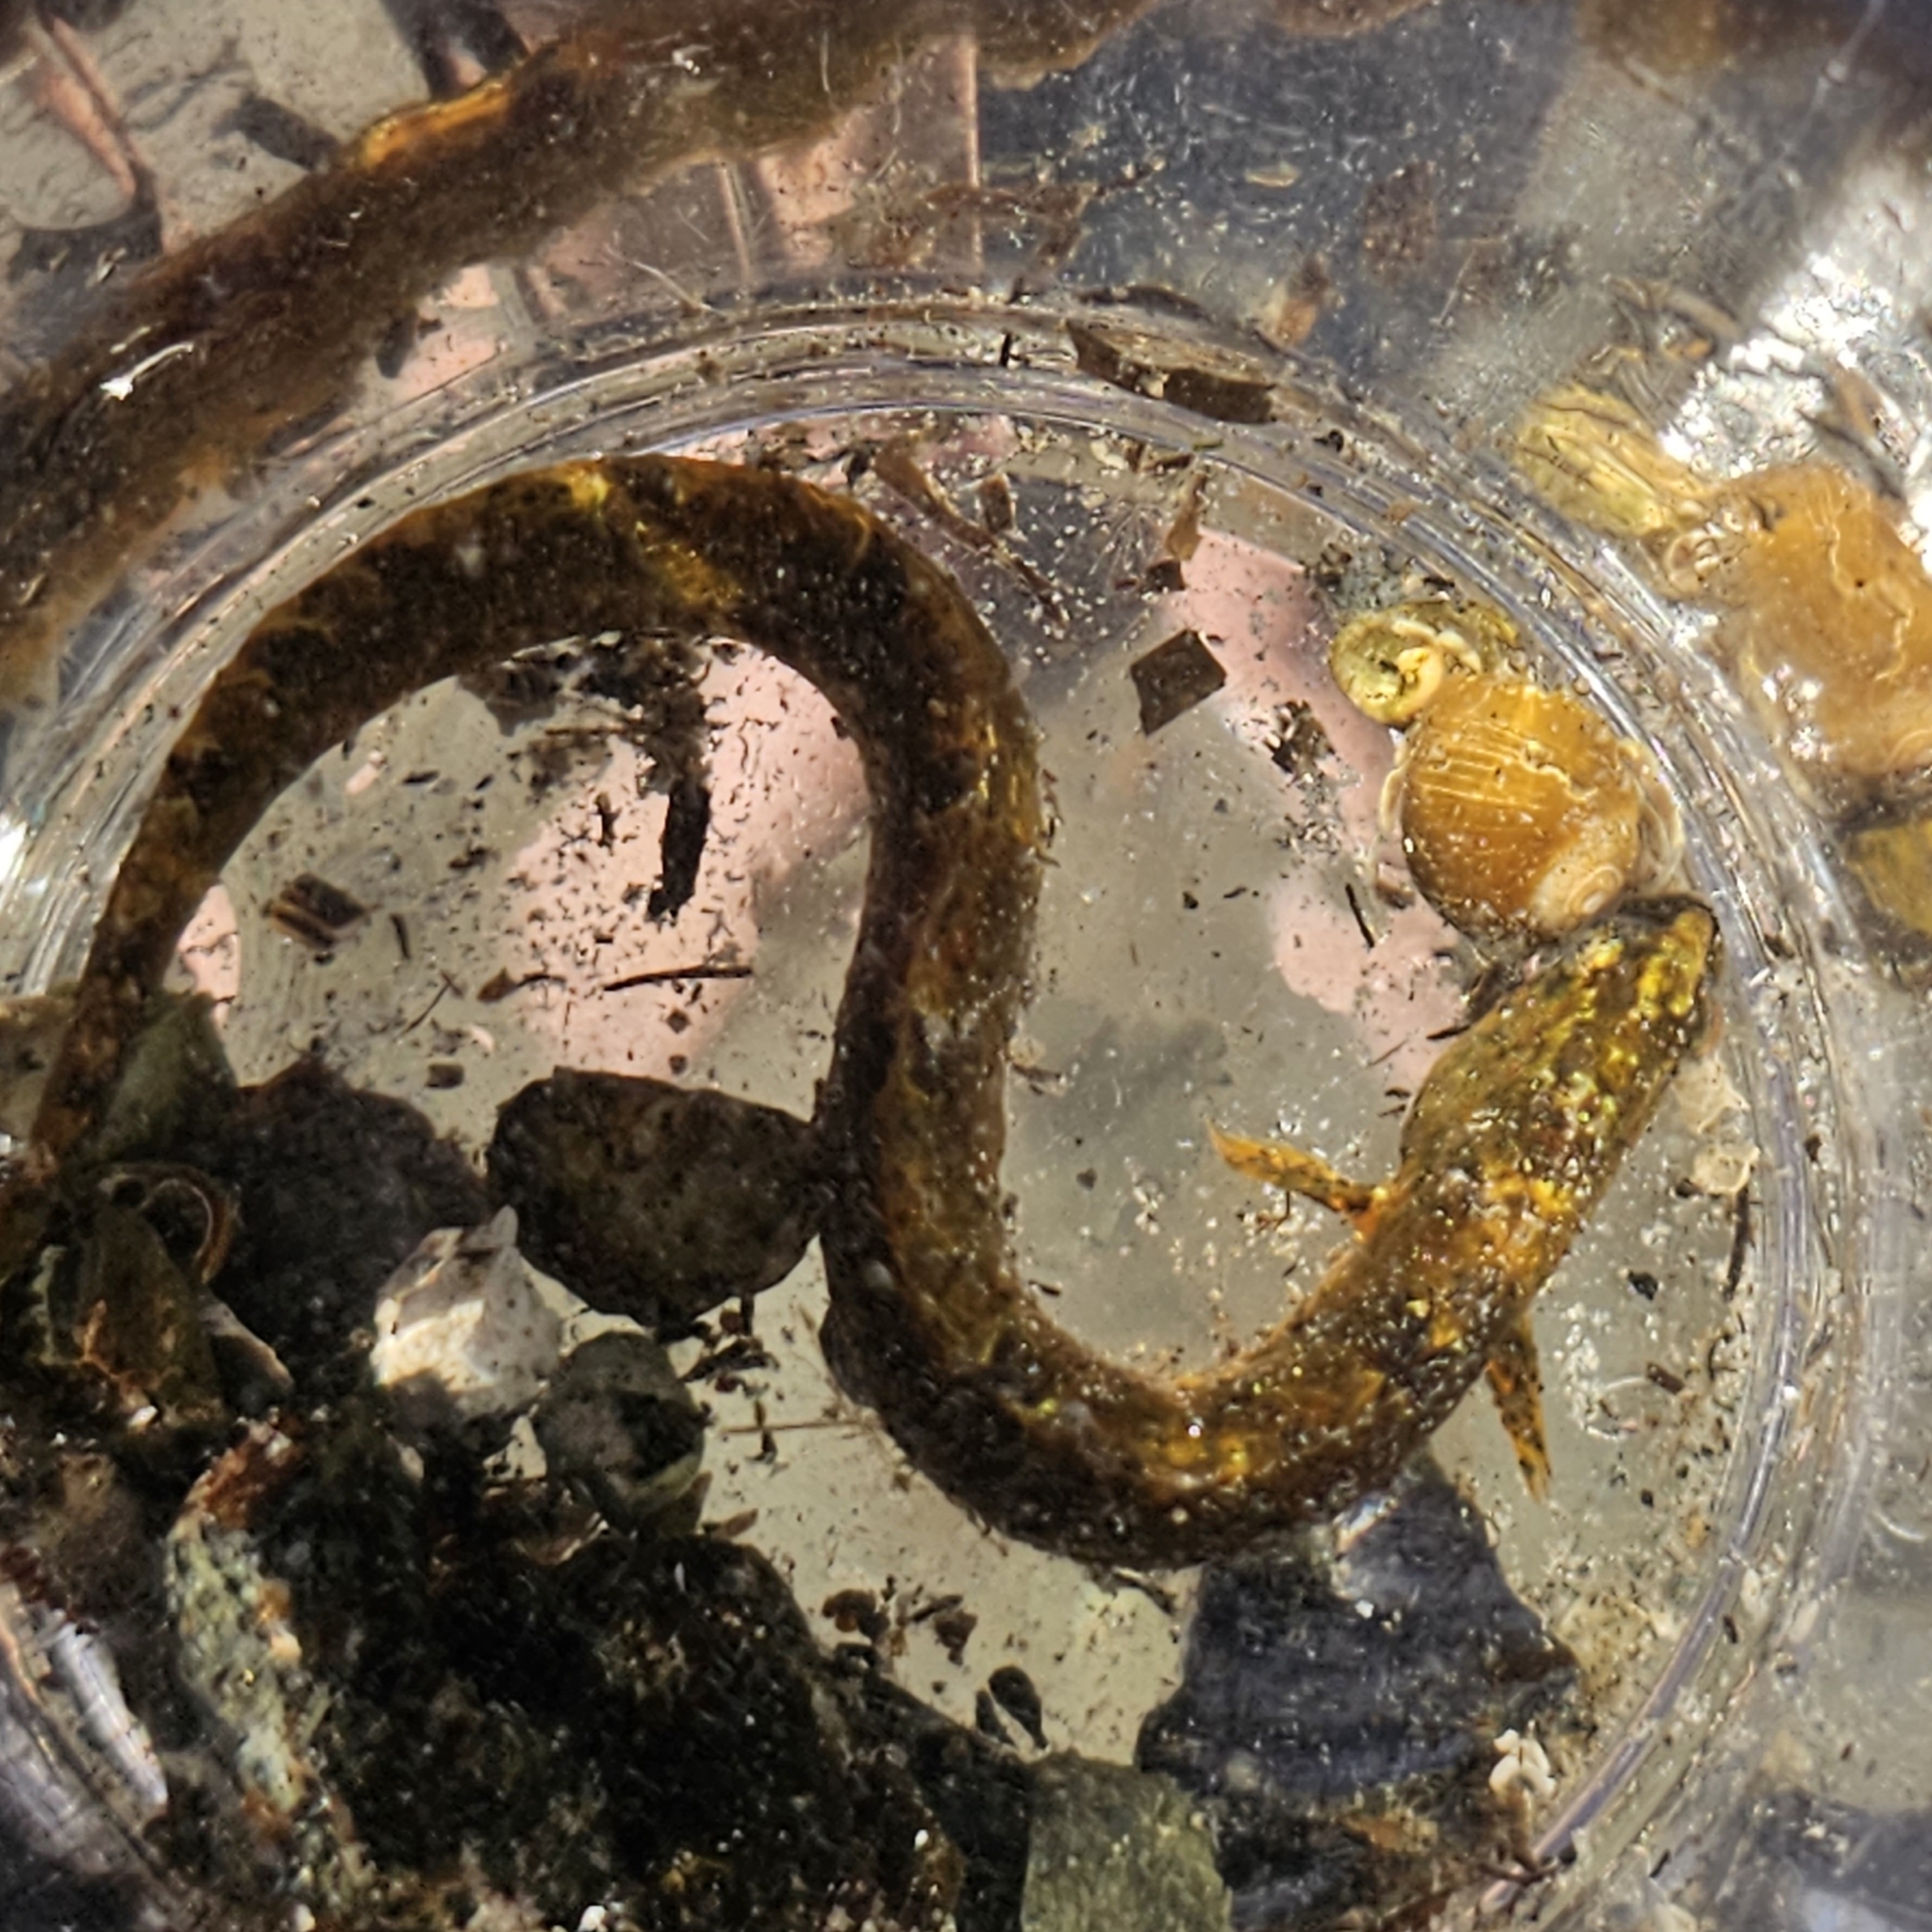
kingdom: Animalia
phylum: Chordata
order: Perciformes
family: Pholidae
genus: Pholis
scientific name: Pholis gunnellus
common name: Butterfish
